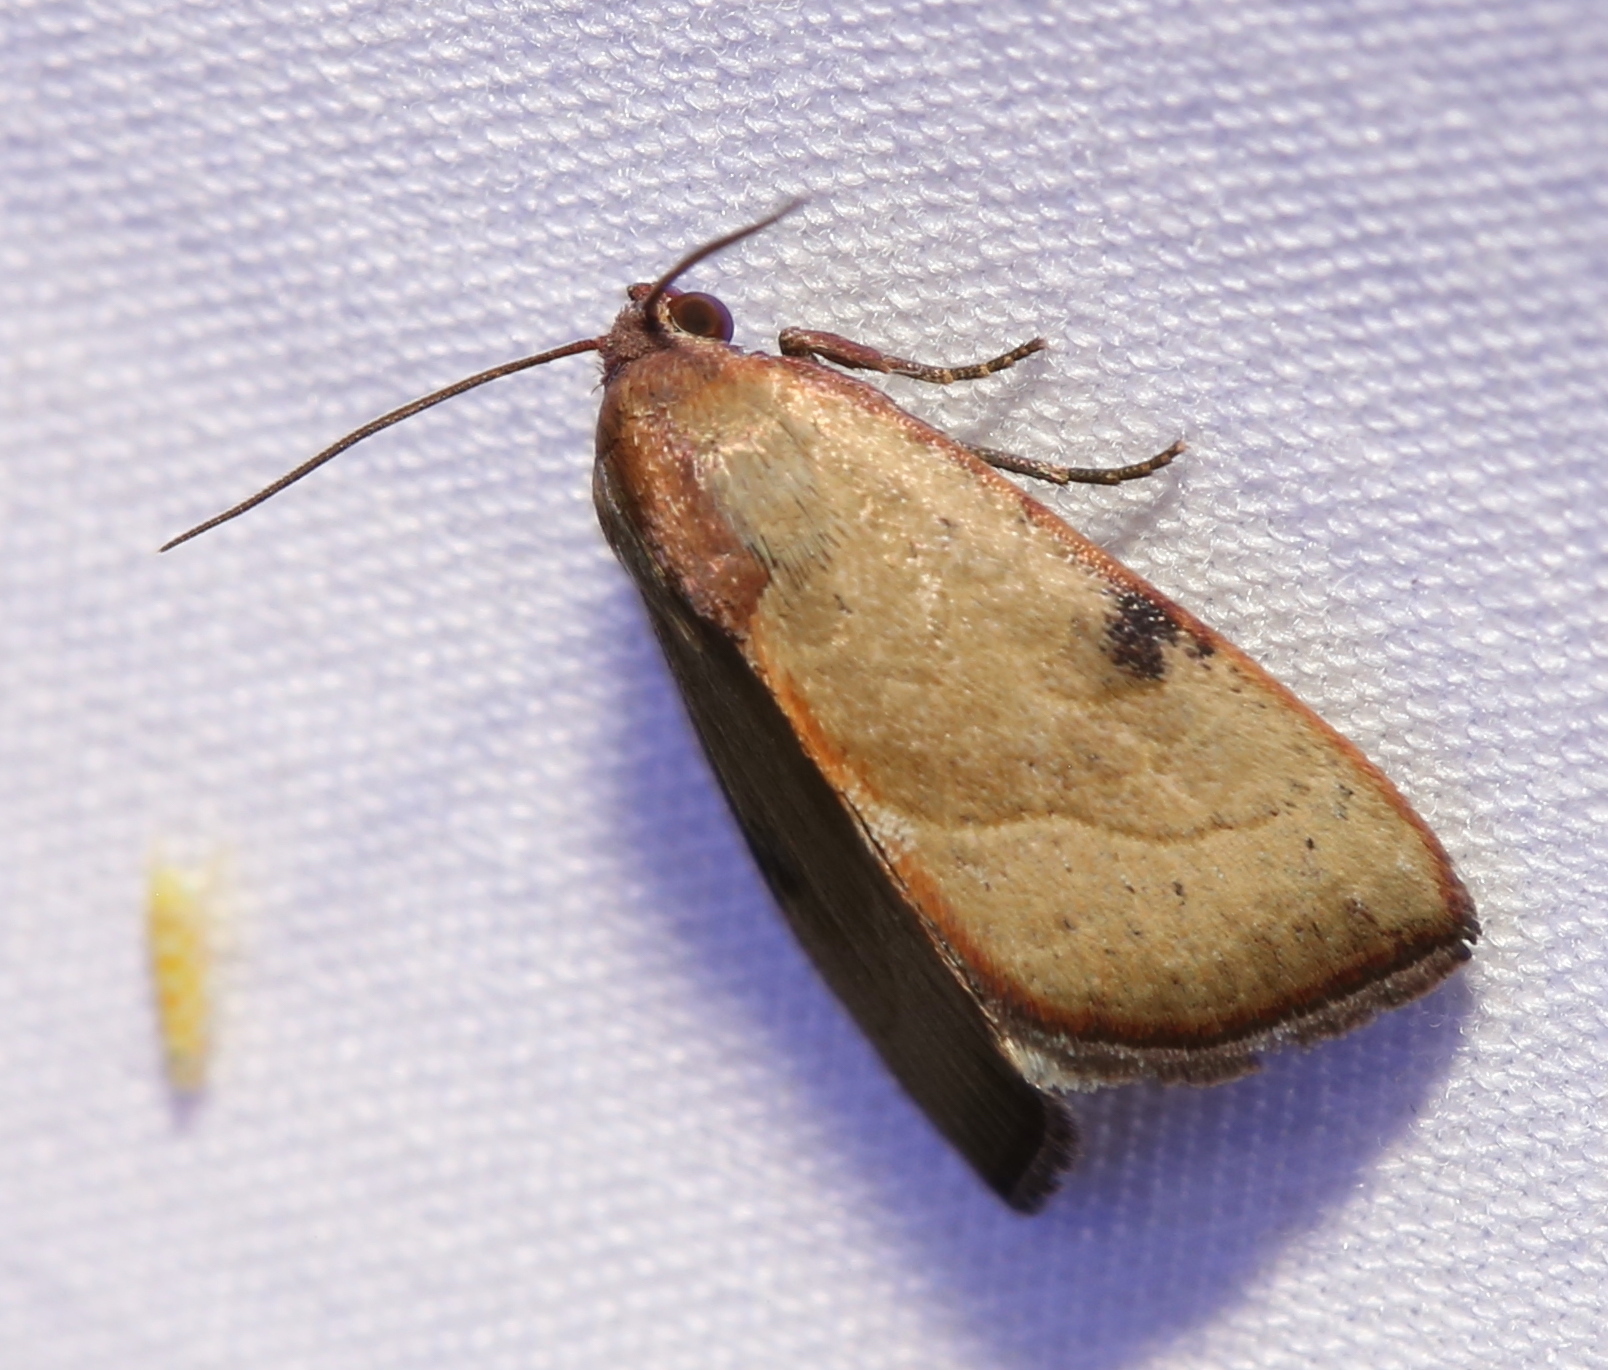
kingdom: Animalia
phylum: Arthropoda
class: Insecta
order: Lepidoptera
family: Noctuidae
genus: Galgula
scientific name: Galgula partita
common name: Wedgeling
